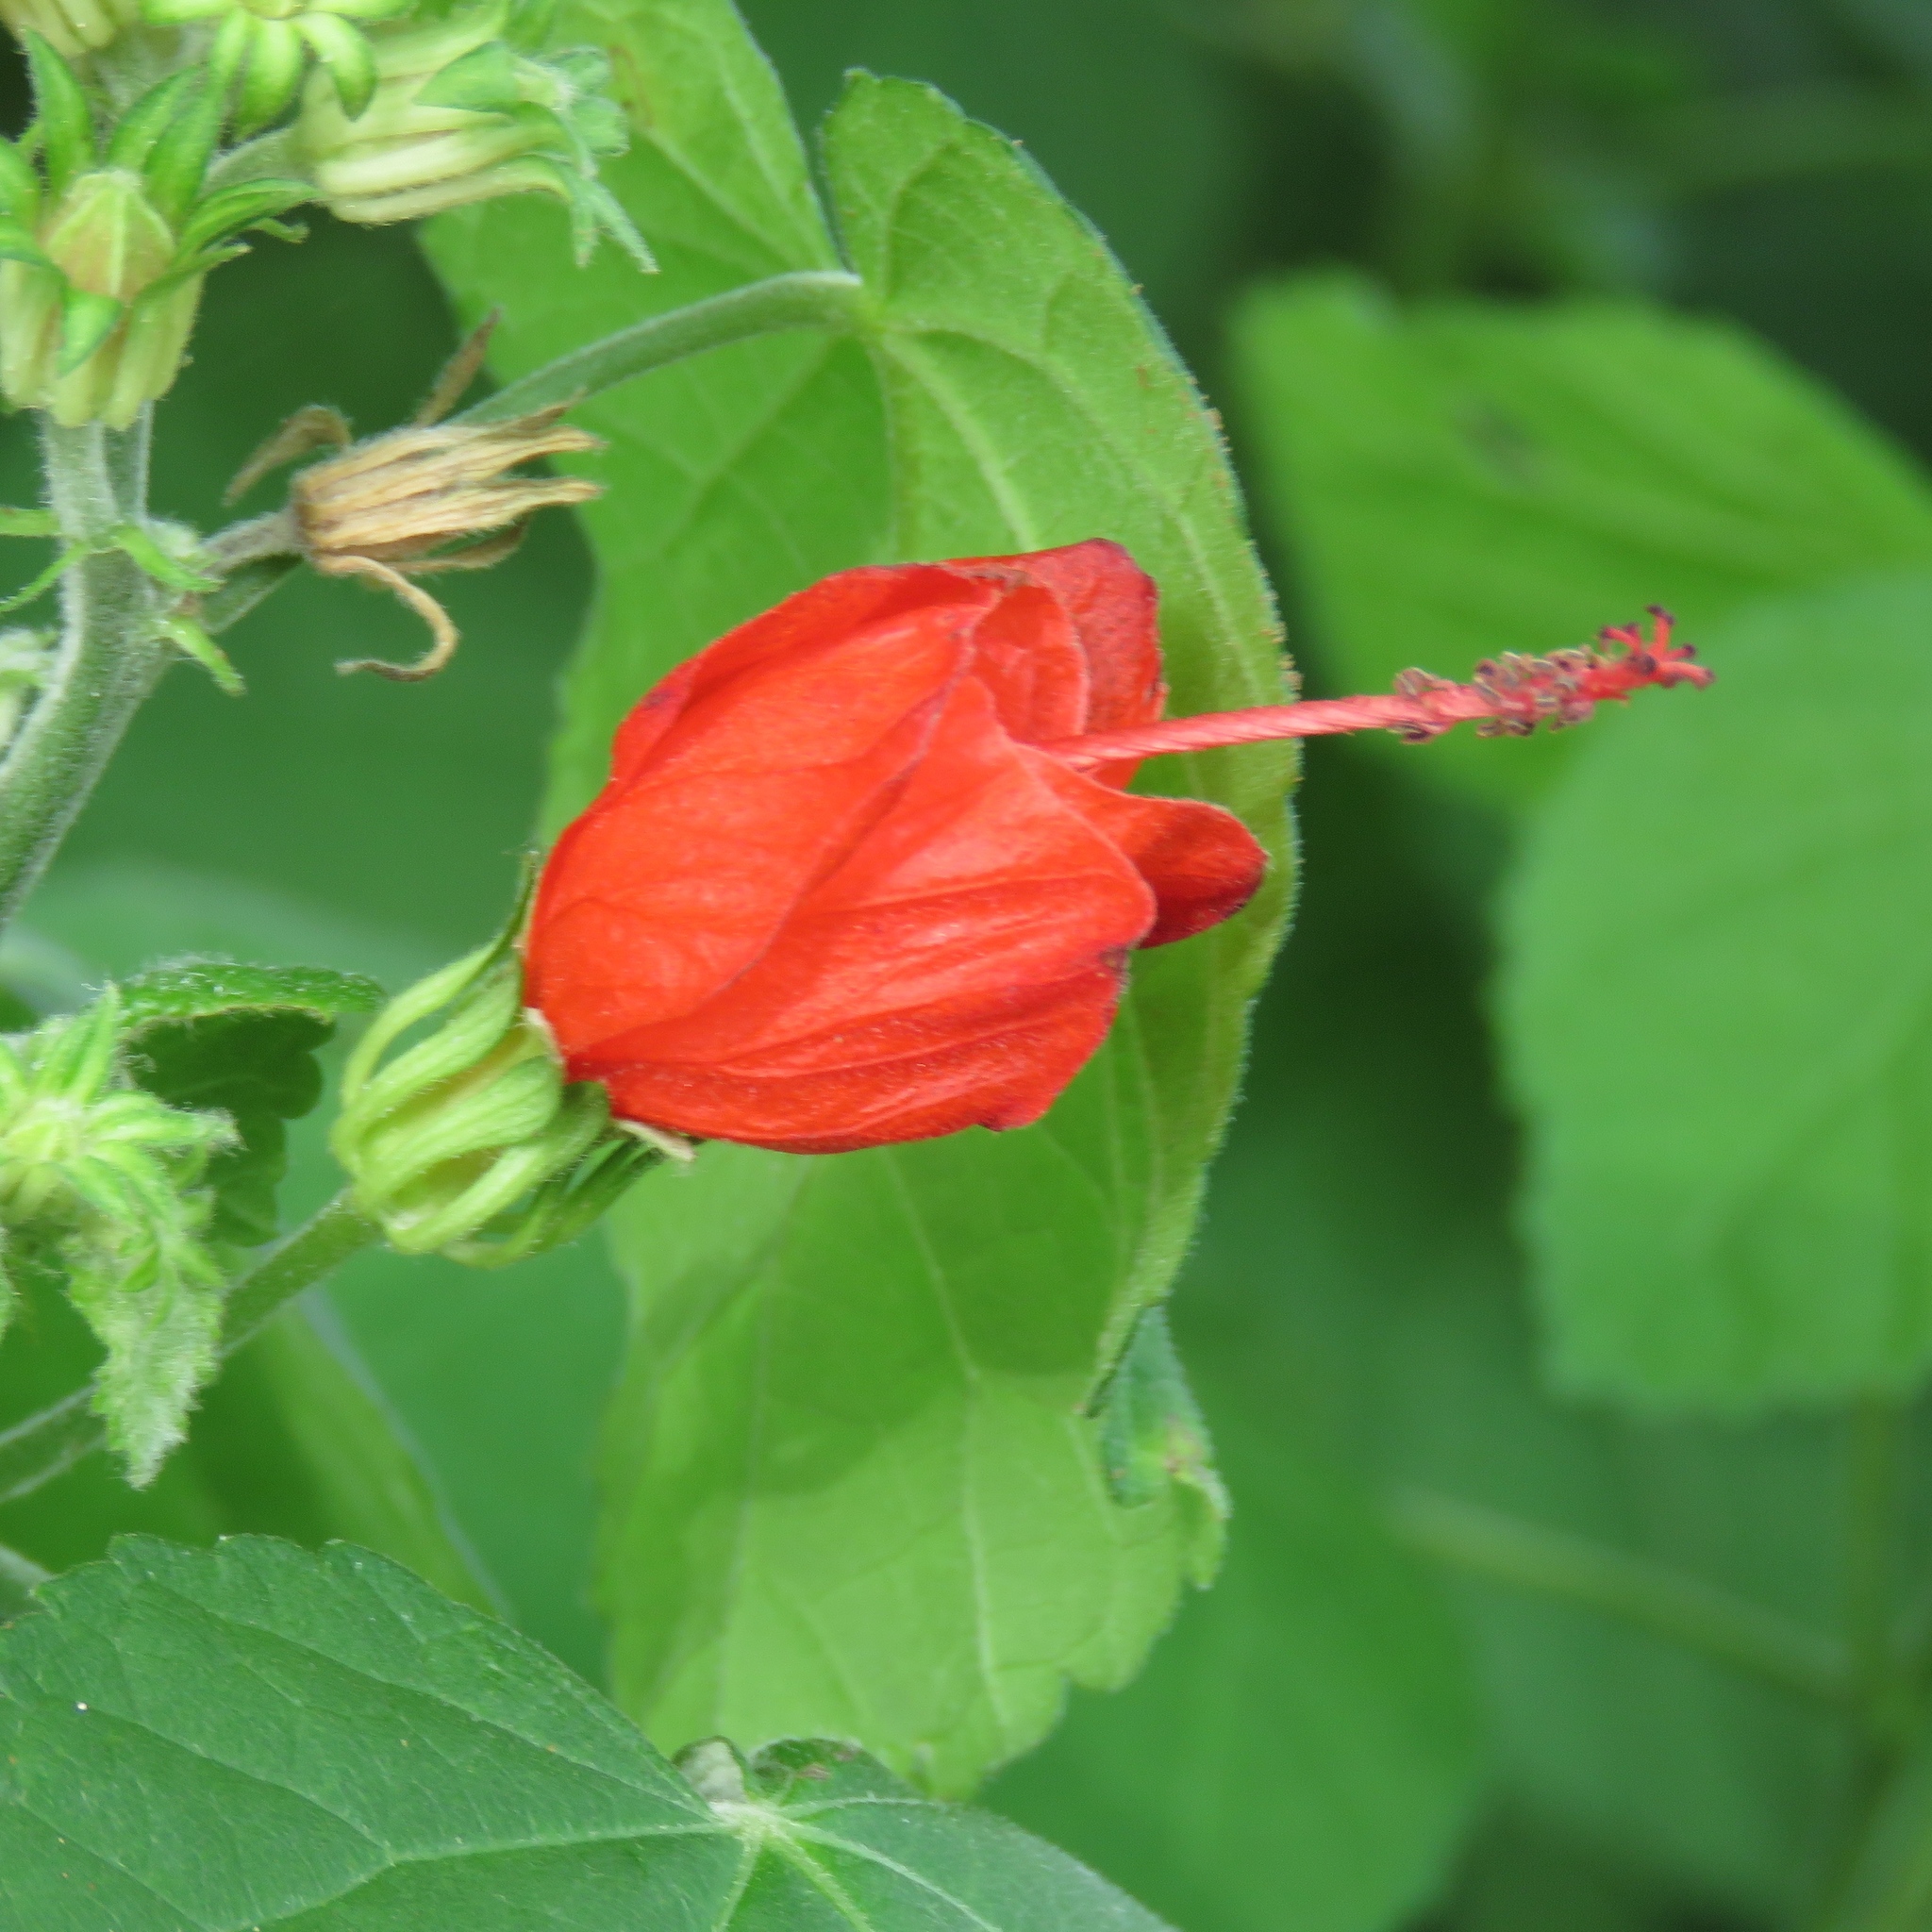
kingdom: Plantae
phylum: Tracheophyta
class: Magnoliopsida
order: Malvales
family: Malvaceae
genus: Malvaviscus
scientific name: Malvaviscus arboreus
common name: Wax mallow
